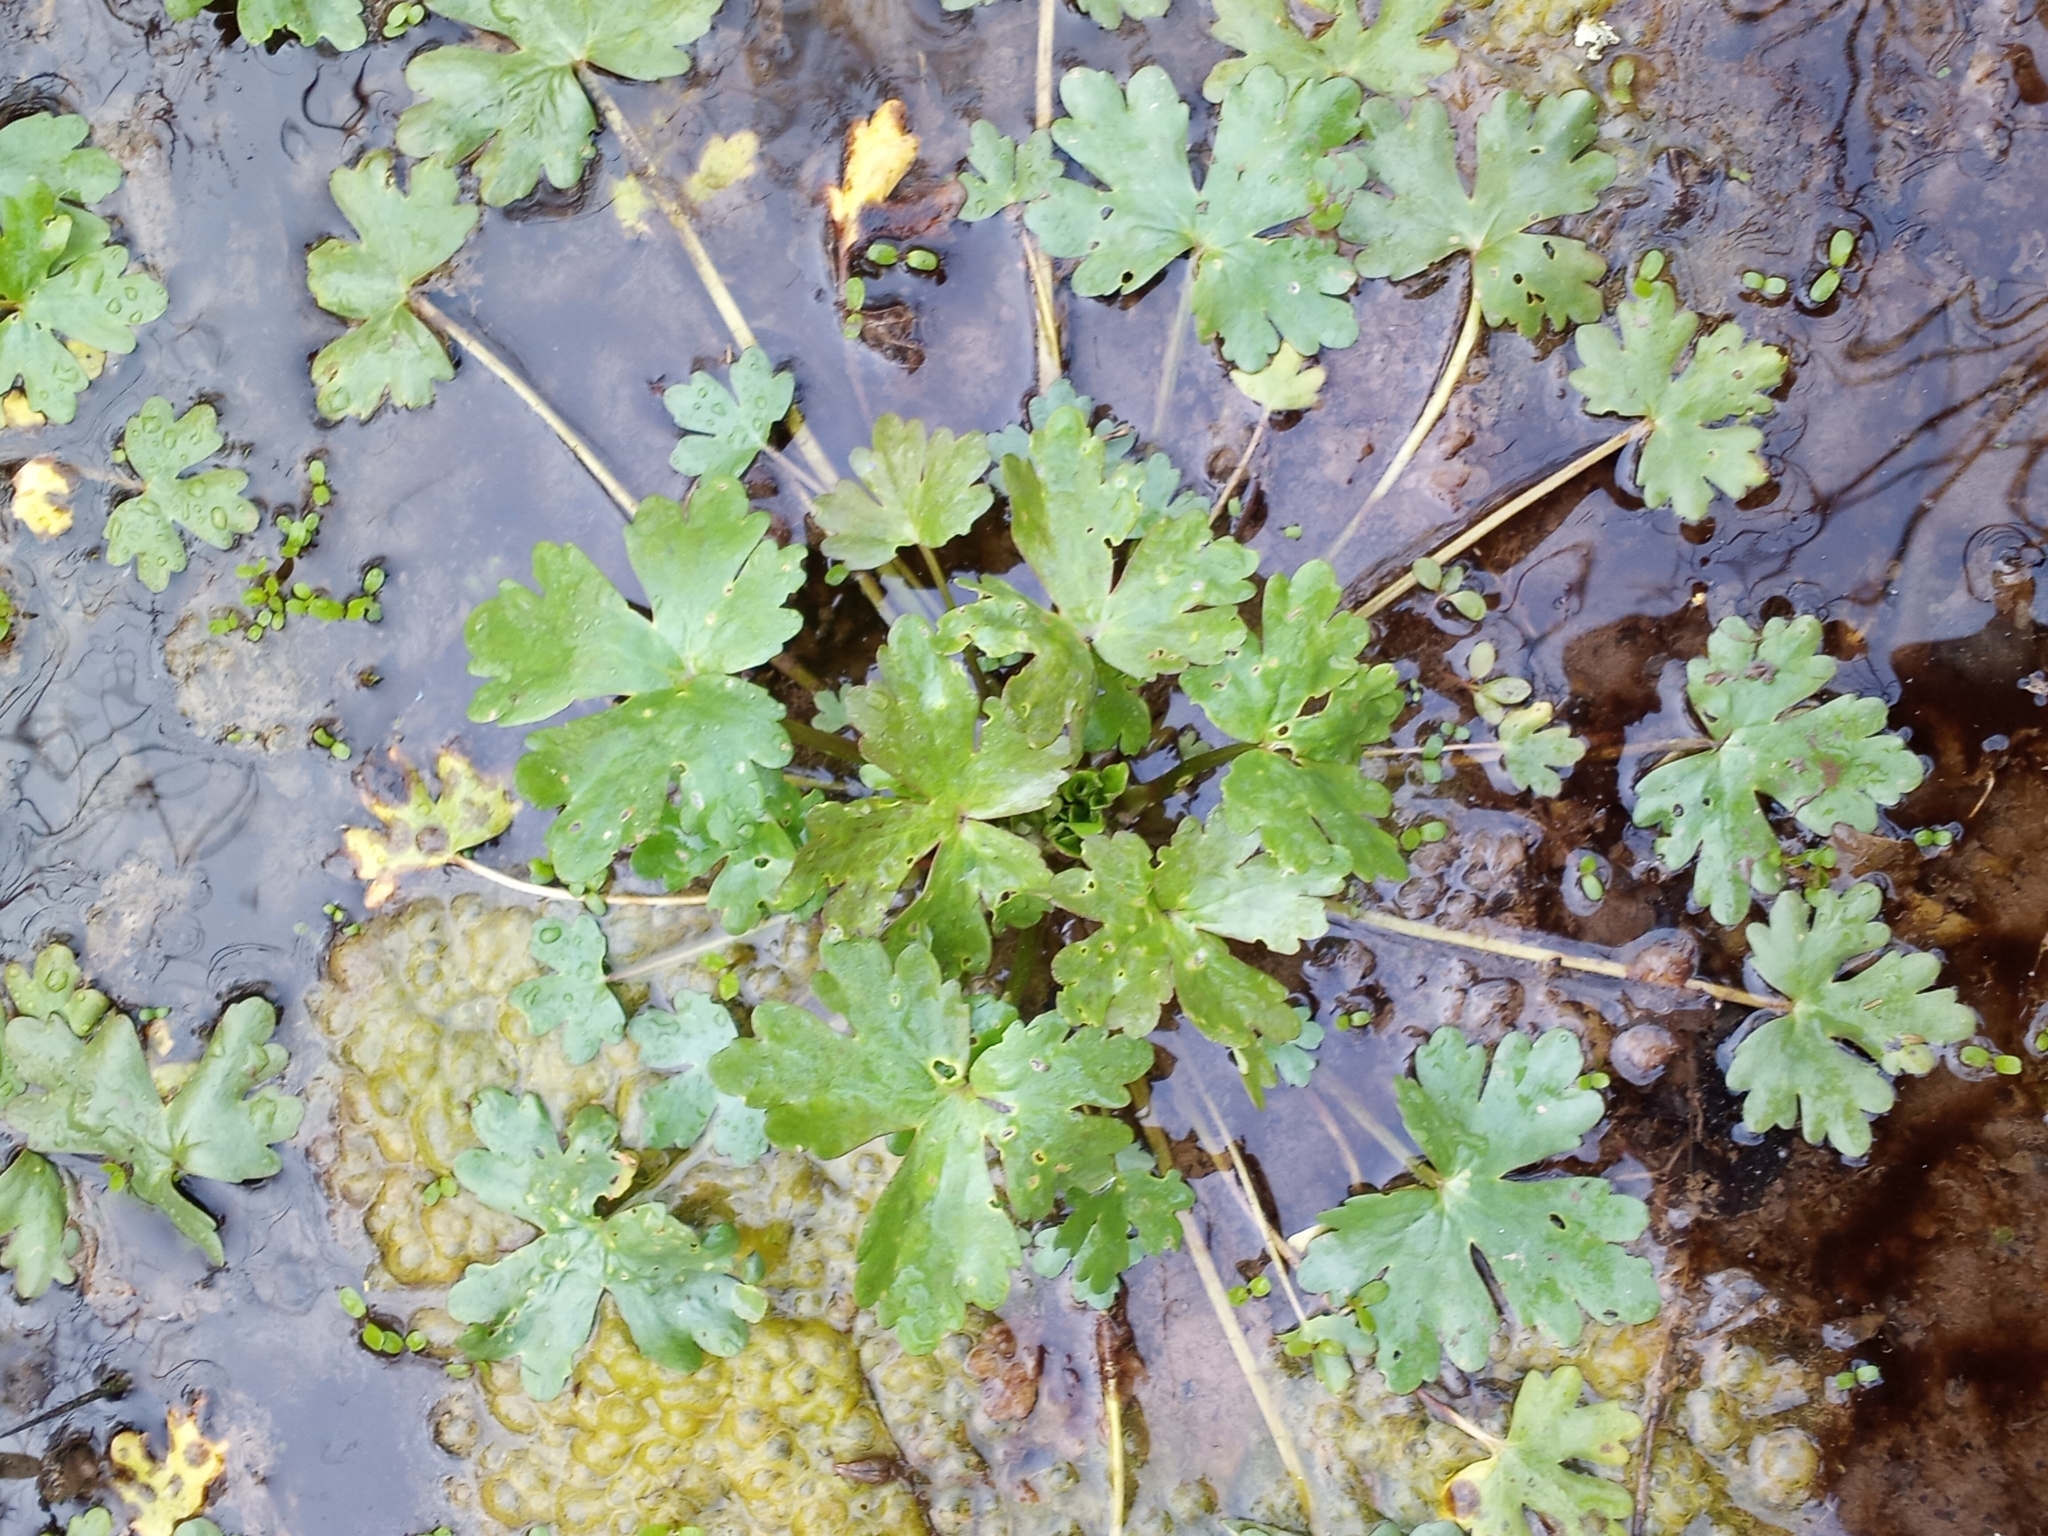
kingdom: Plantae
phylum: Tracheophyta
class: Magnoliopsida
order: Ranunculales
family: Ranunculaceae
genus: Ranunculus
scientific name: Ranunculus sceleratus
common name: Celery-leaved buttercup
